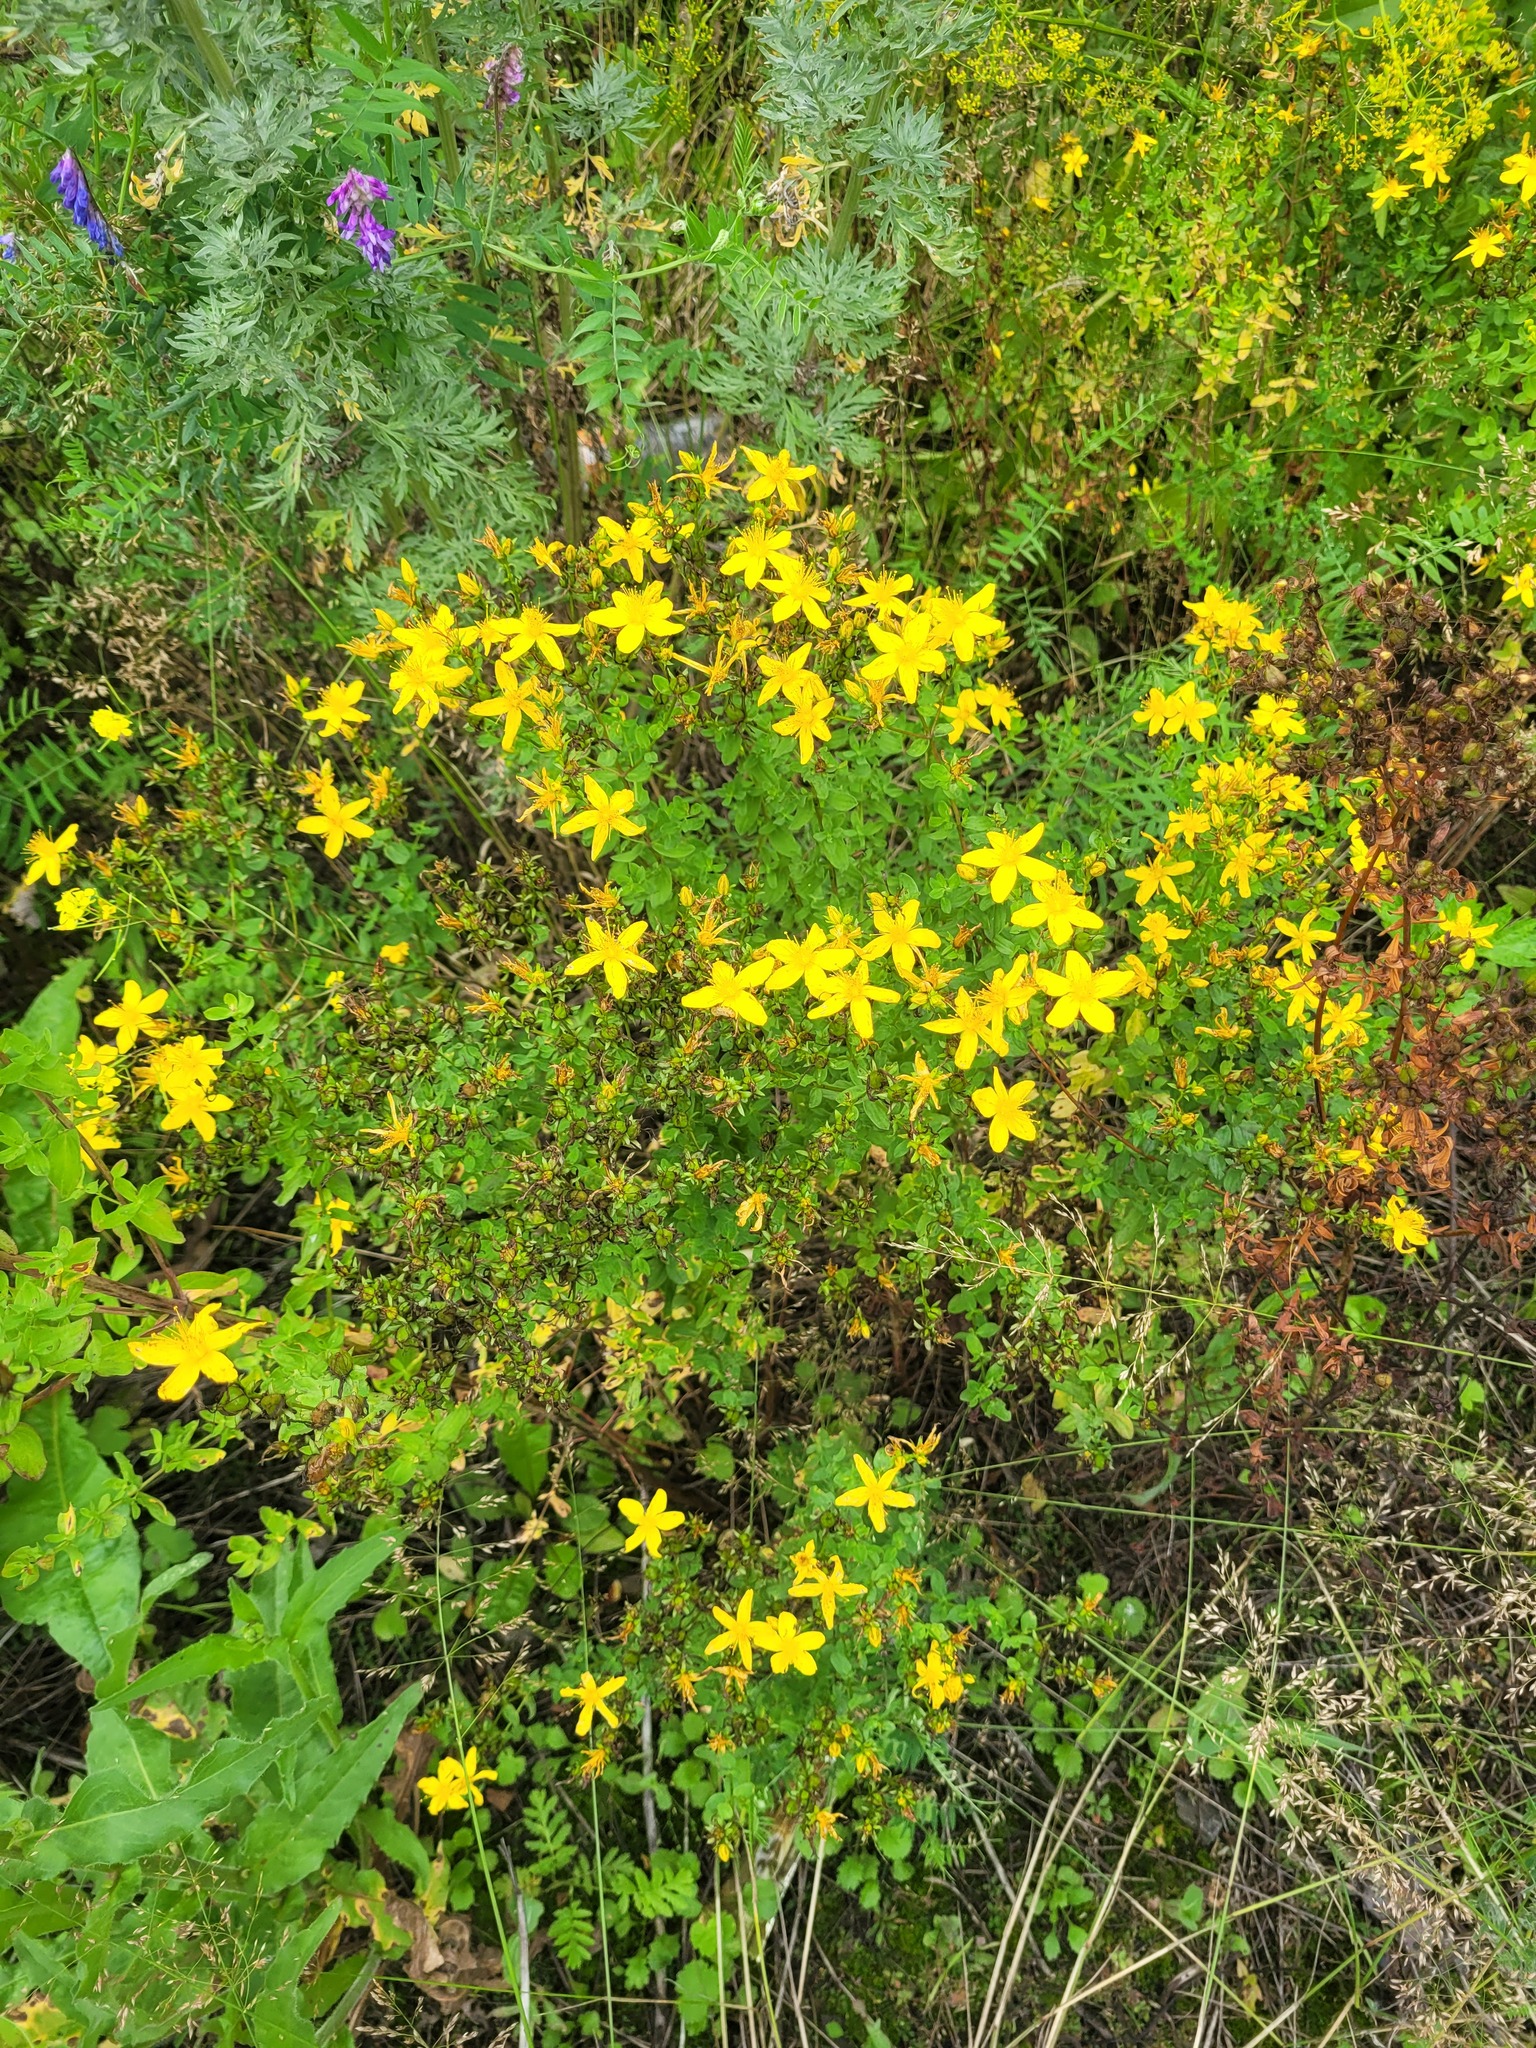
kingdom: Plantae
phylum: Tracheophyta
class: Magnoliopsida
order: Malpighiales
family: Hypericaceae
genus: Hypericum
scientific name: Hypericum perforatum
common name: Common st. johnswort
